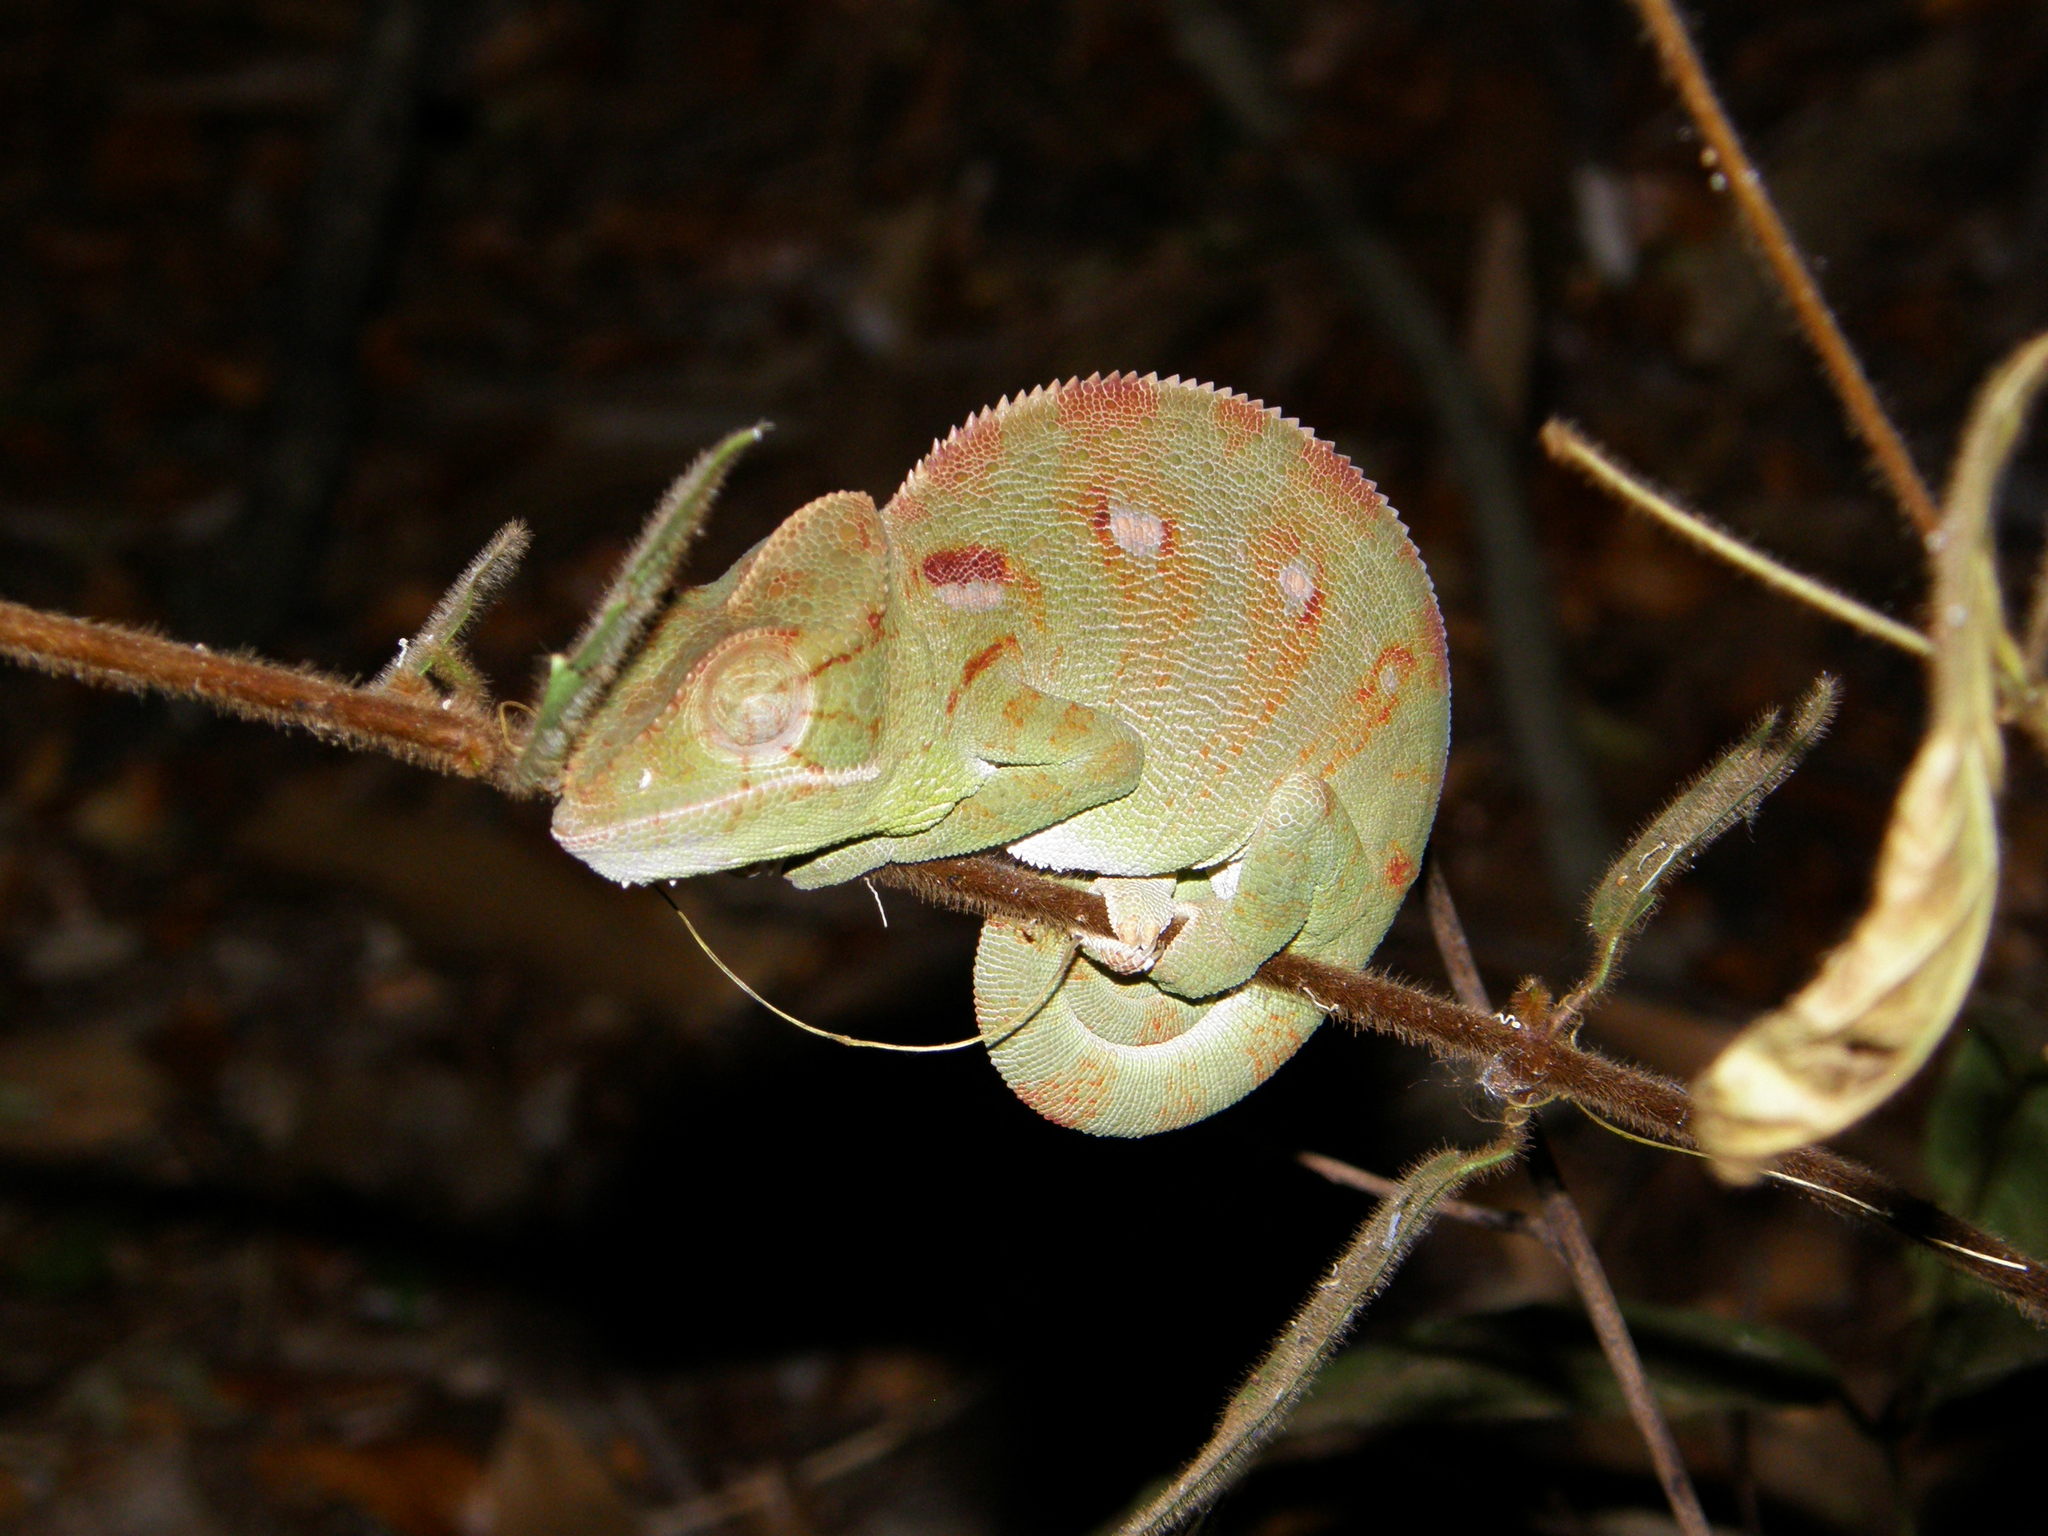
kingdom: Animalia
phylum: Chordata
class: Squamata
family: Chamaeleonidae
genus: Furcifer
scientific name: Furcifer oustaleti
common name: Oustalet's chameleon
